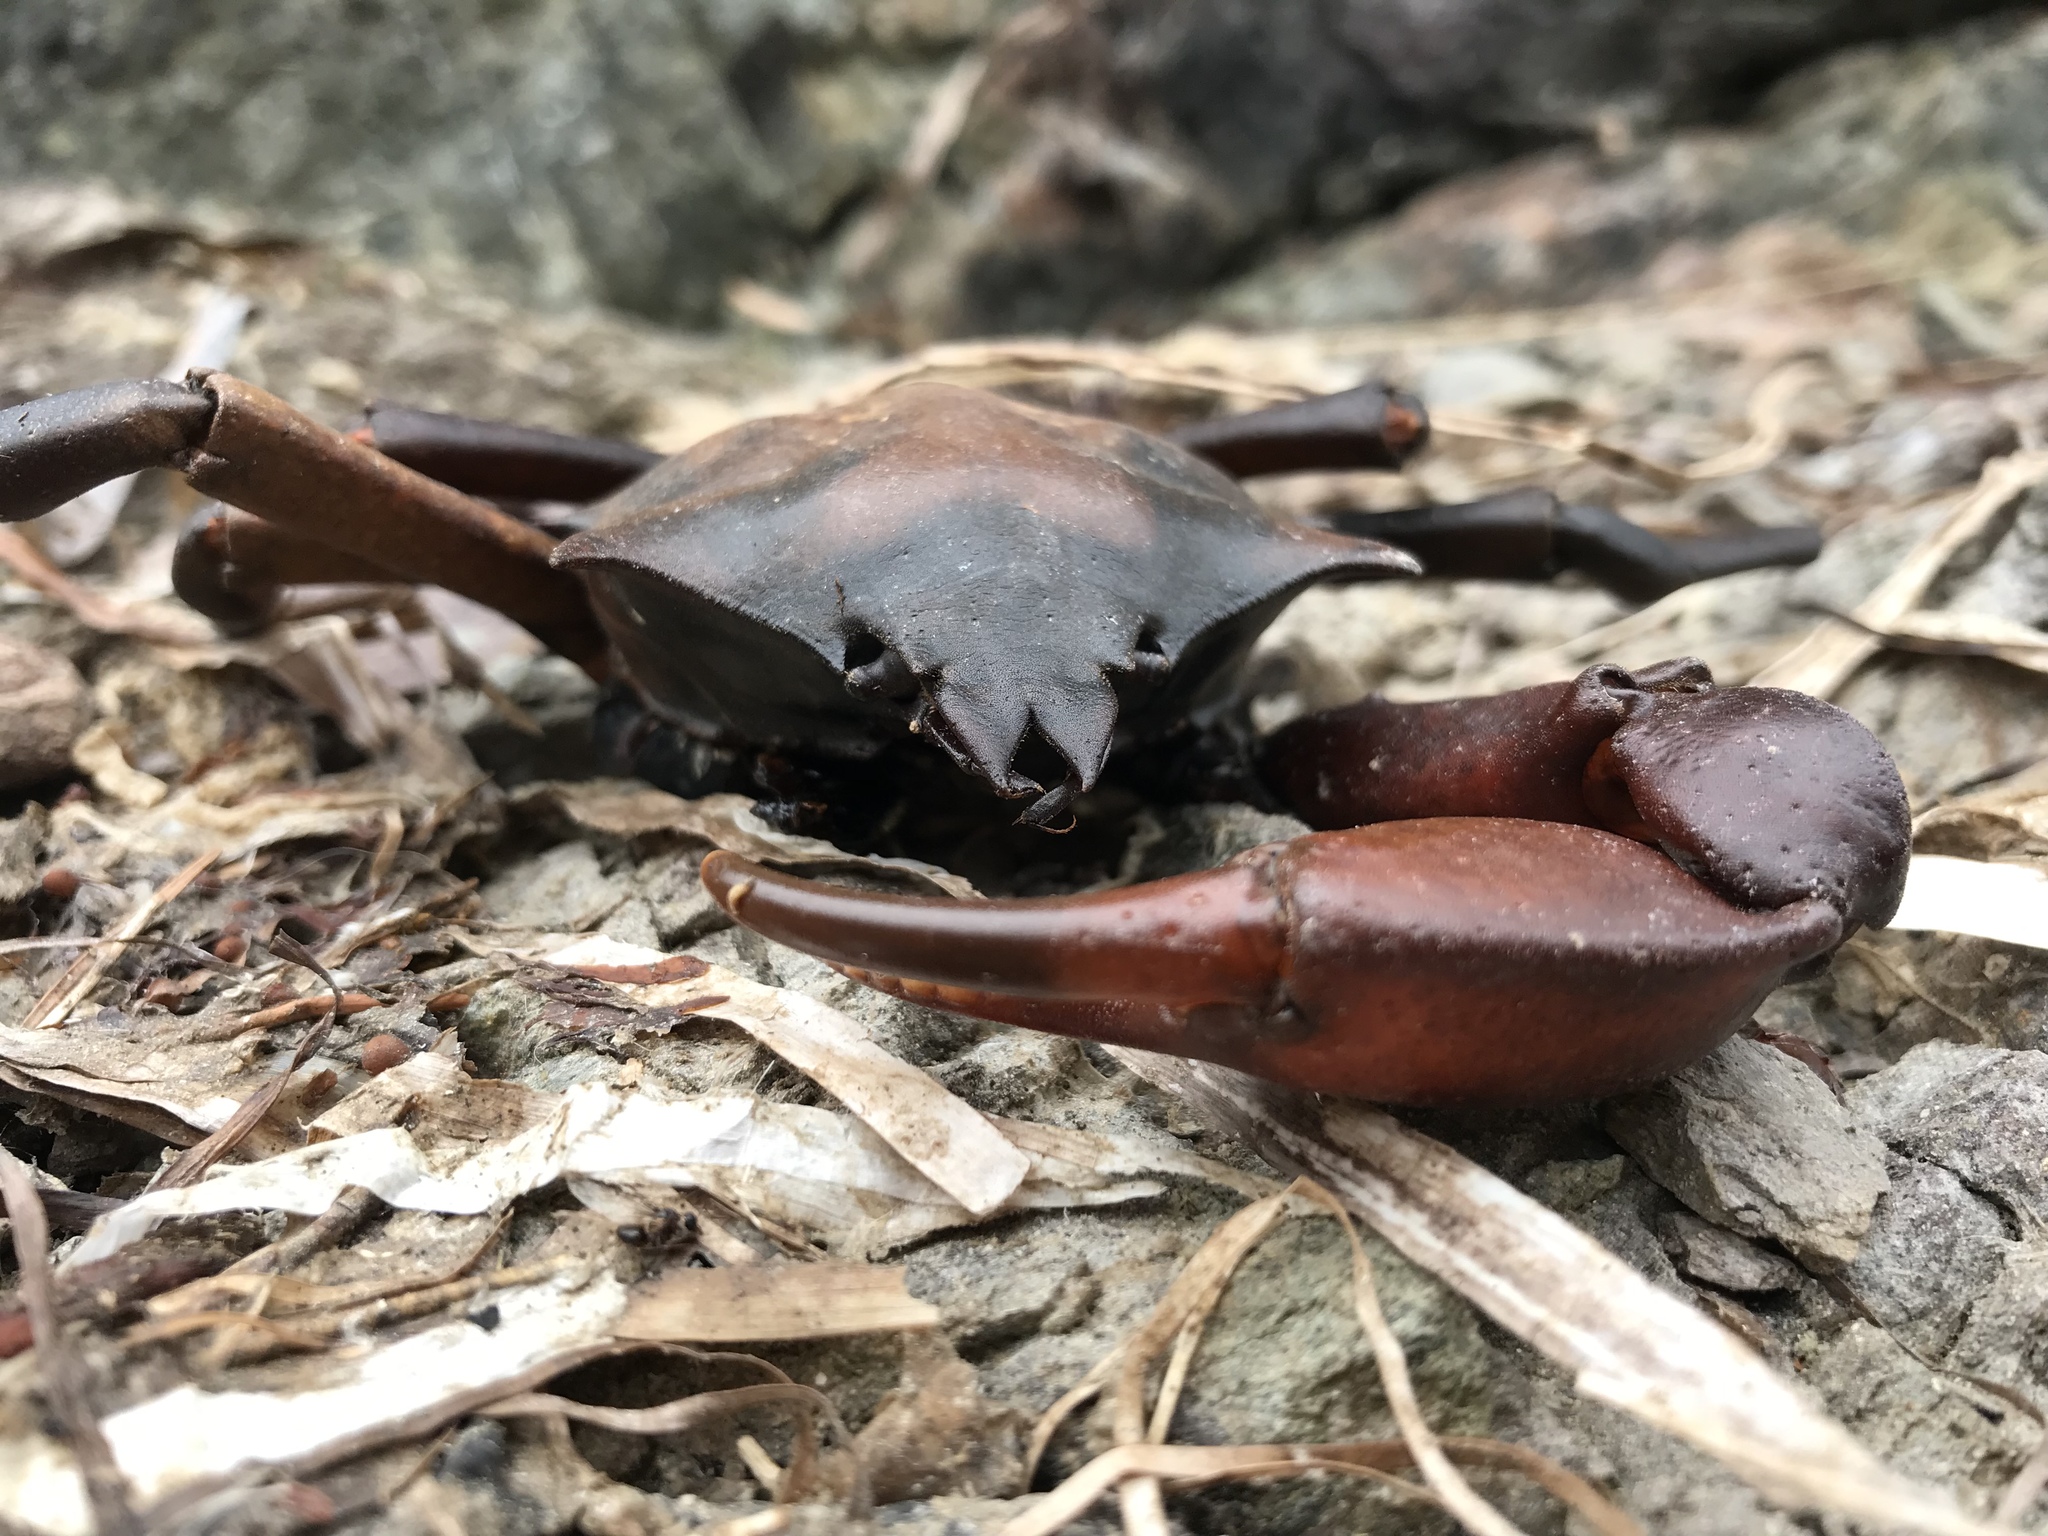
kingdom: Animalia
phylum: Arthropoda
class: Malacostraca
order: Decapoda
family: Epialtidae
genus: Pugettia
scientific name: Pugettia producta
